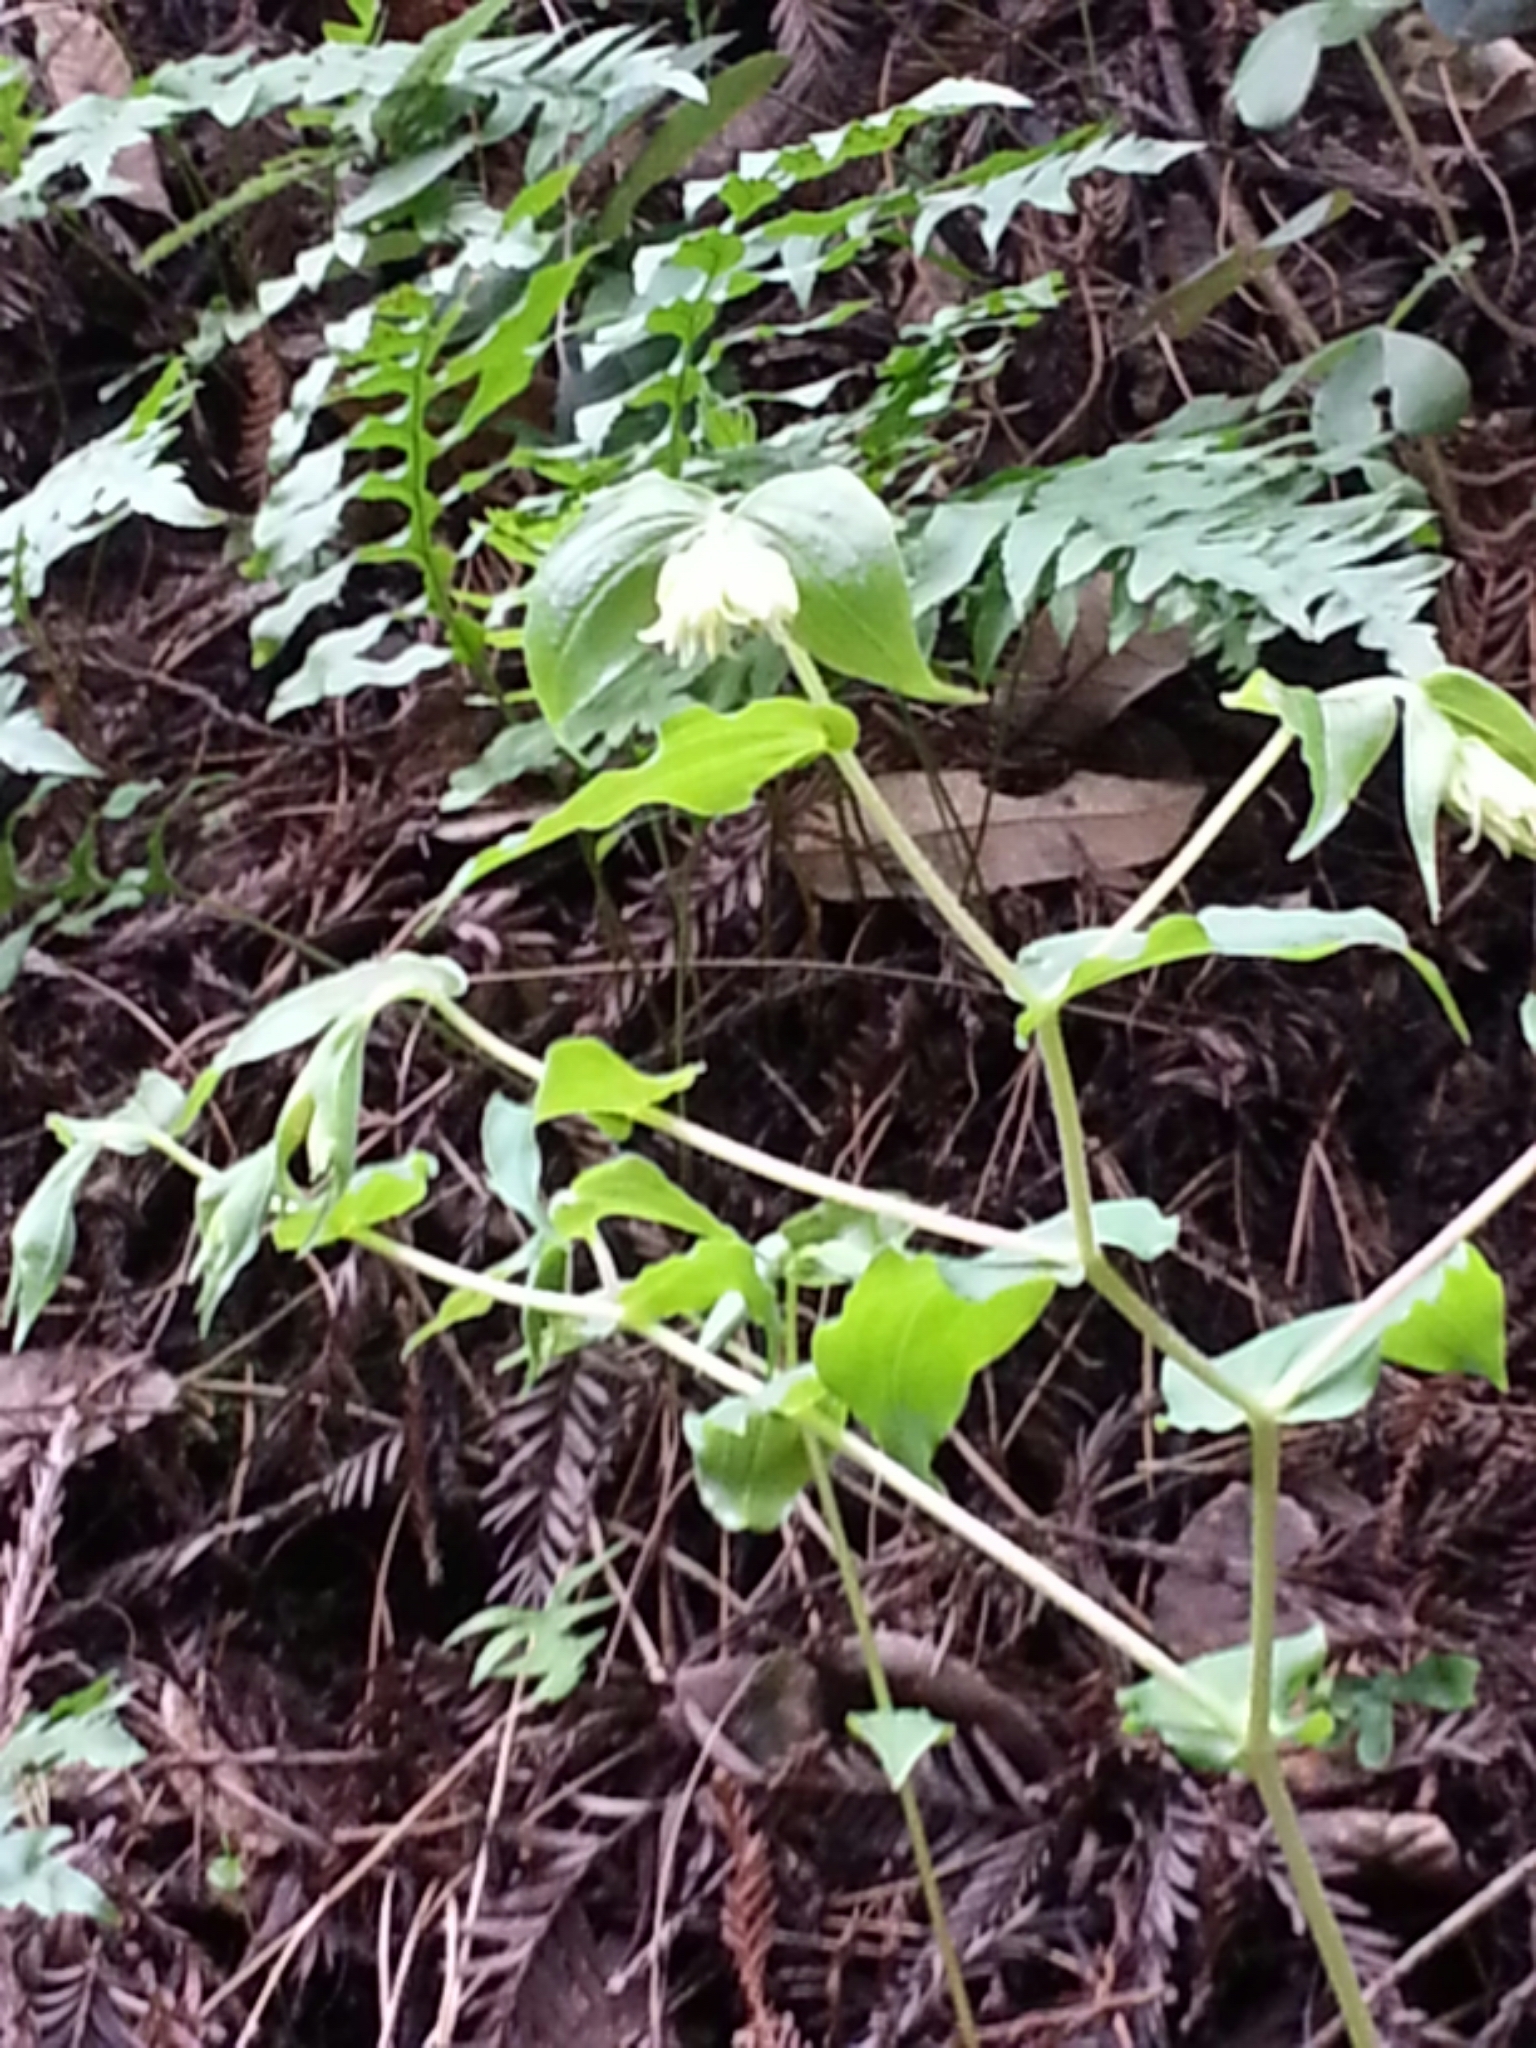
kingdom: Plantae
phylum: Tracheophyta
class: Liliopsida
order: Liliales
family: Liliaceae
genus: Prosartes
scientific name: Prosartes hookeri
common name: Fairy-bells
